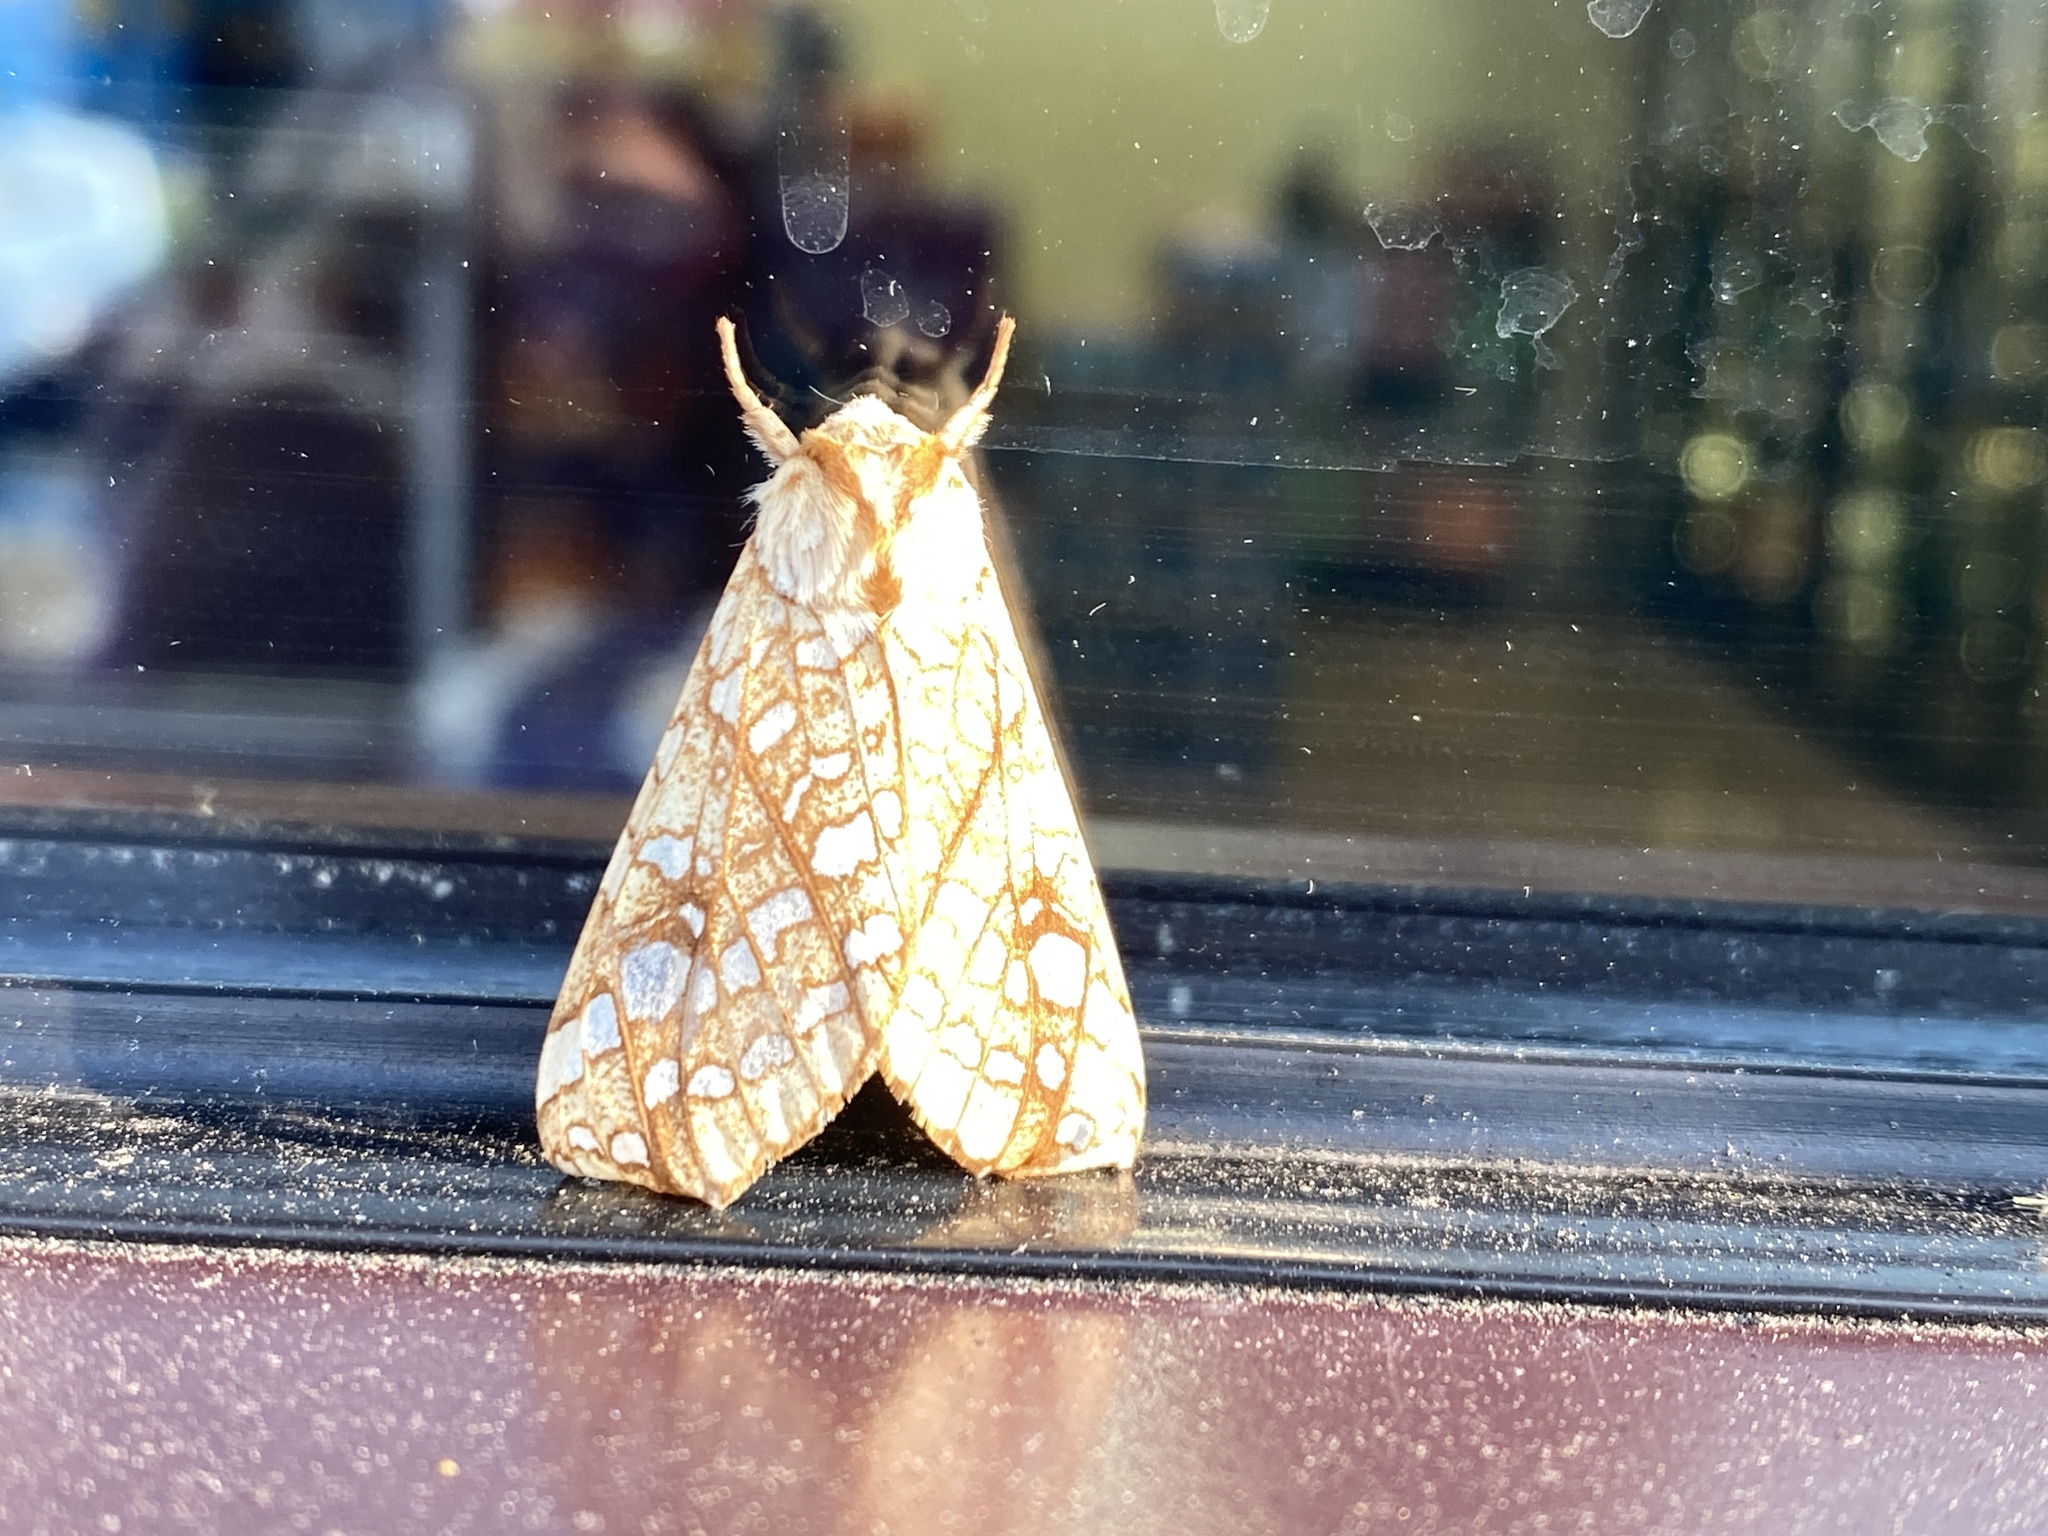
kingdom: Animalia
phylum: Arthropoda
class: Insecta
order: Lepidoptera
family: Erebidae
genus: Lophocampa
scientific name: Lophocampa caryae
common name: Hickory tussock moth
